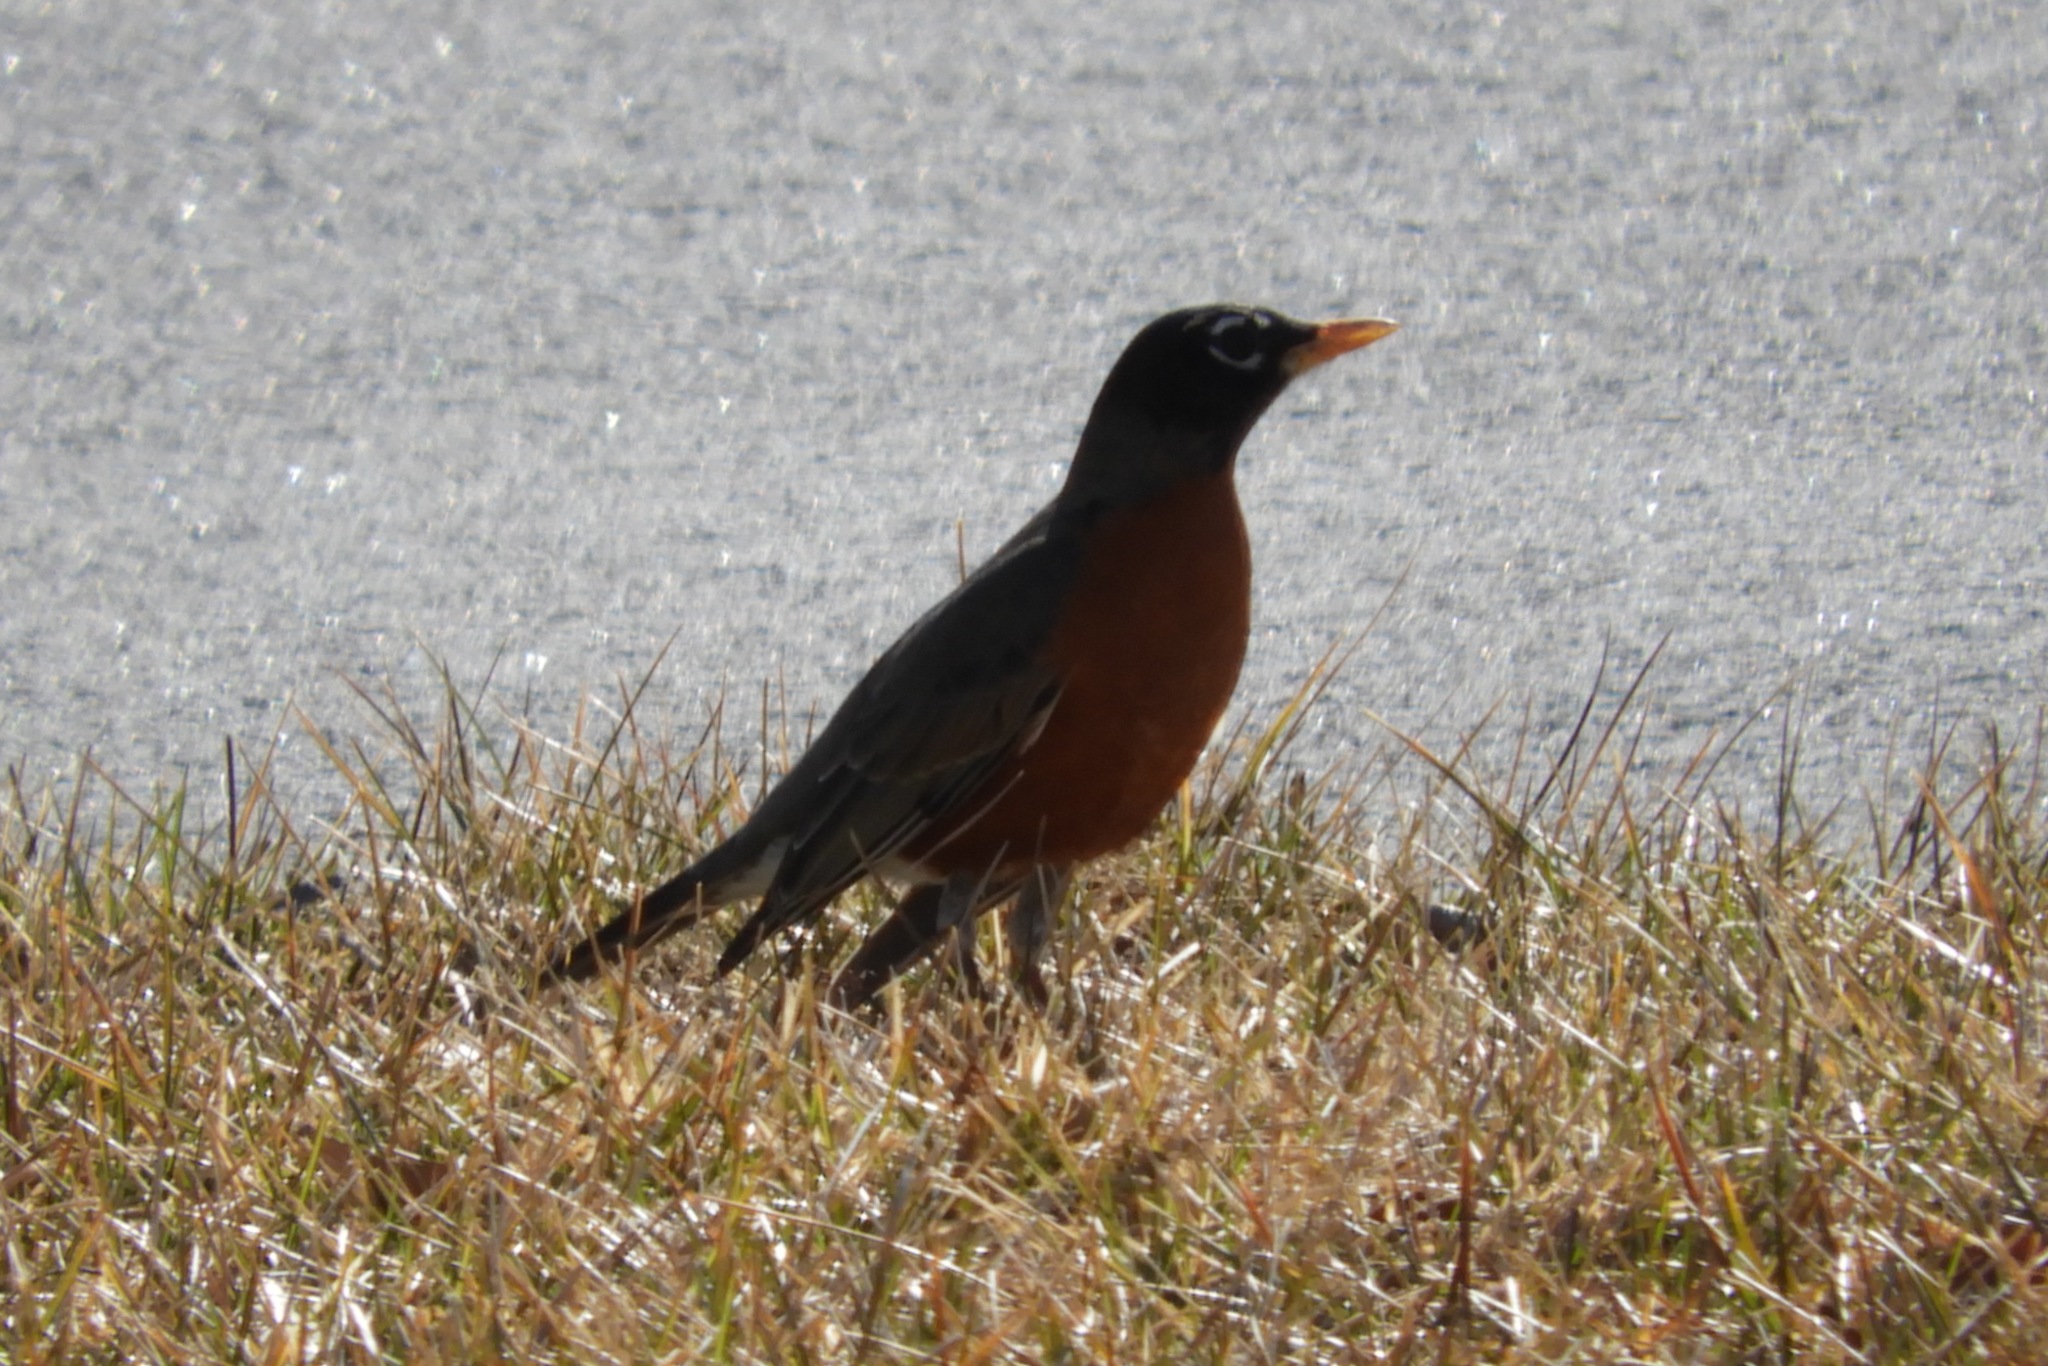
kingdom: Animalia
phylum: Chordata
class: Aves
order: Passeriformes
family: Turdidae
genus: Turdus
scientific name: Turdus migratorius
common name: American robin
